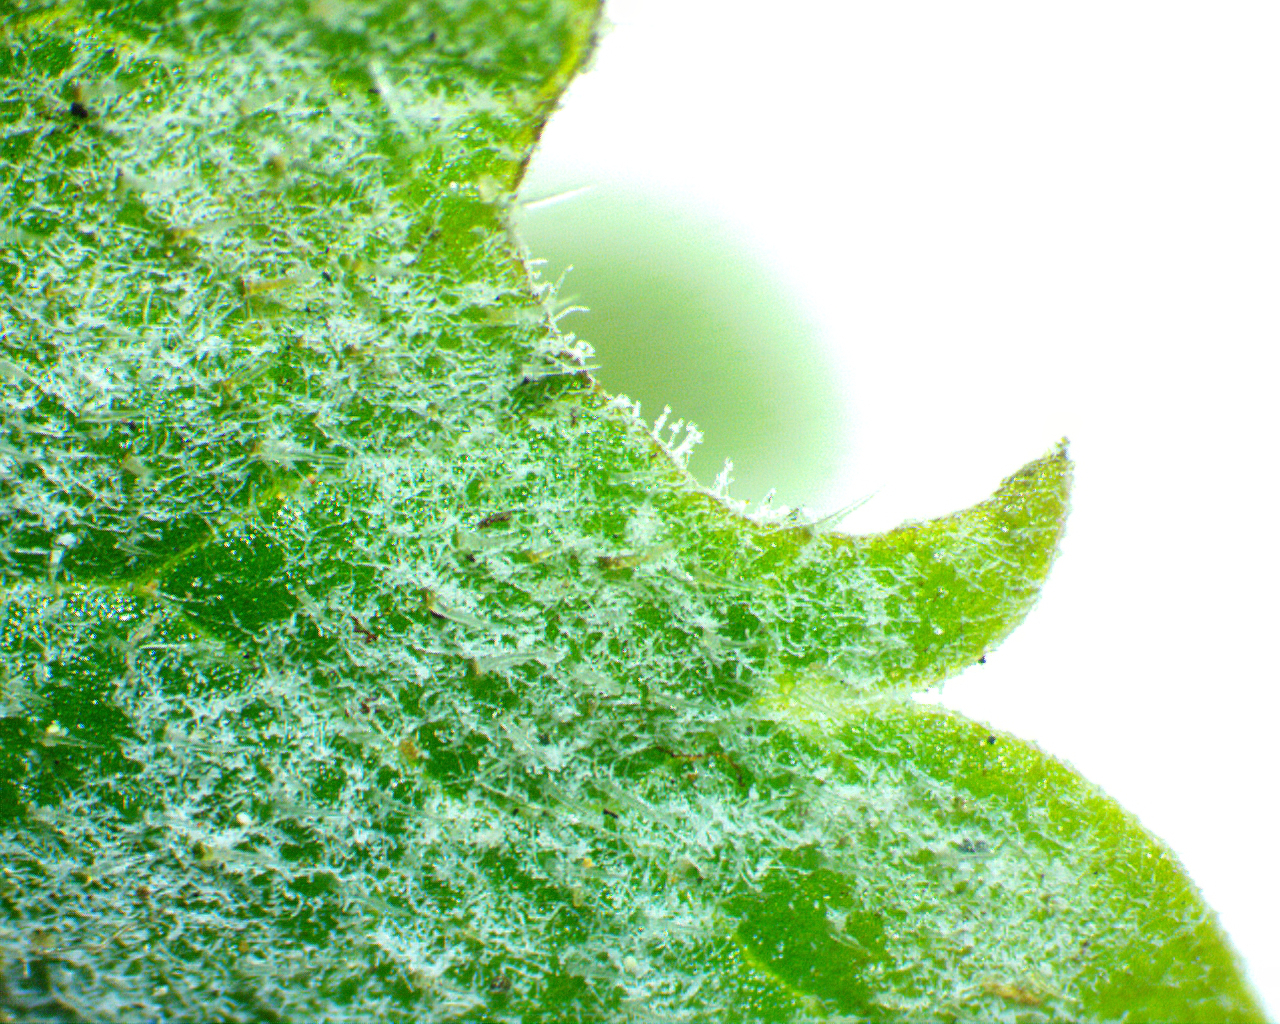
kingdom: Fungi
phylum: Ascomycota
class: Leotiomycetes
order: Helotiales
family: Erysiphaceae
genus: Neoerysiphe
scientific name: Neoerysiphe galeopsidis
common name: Mint mildew
